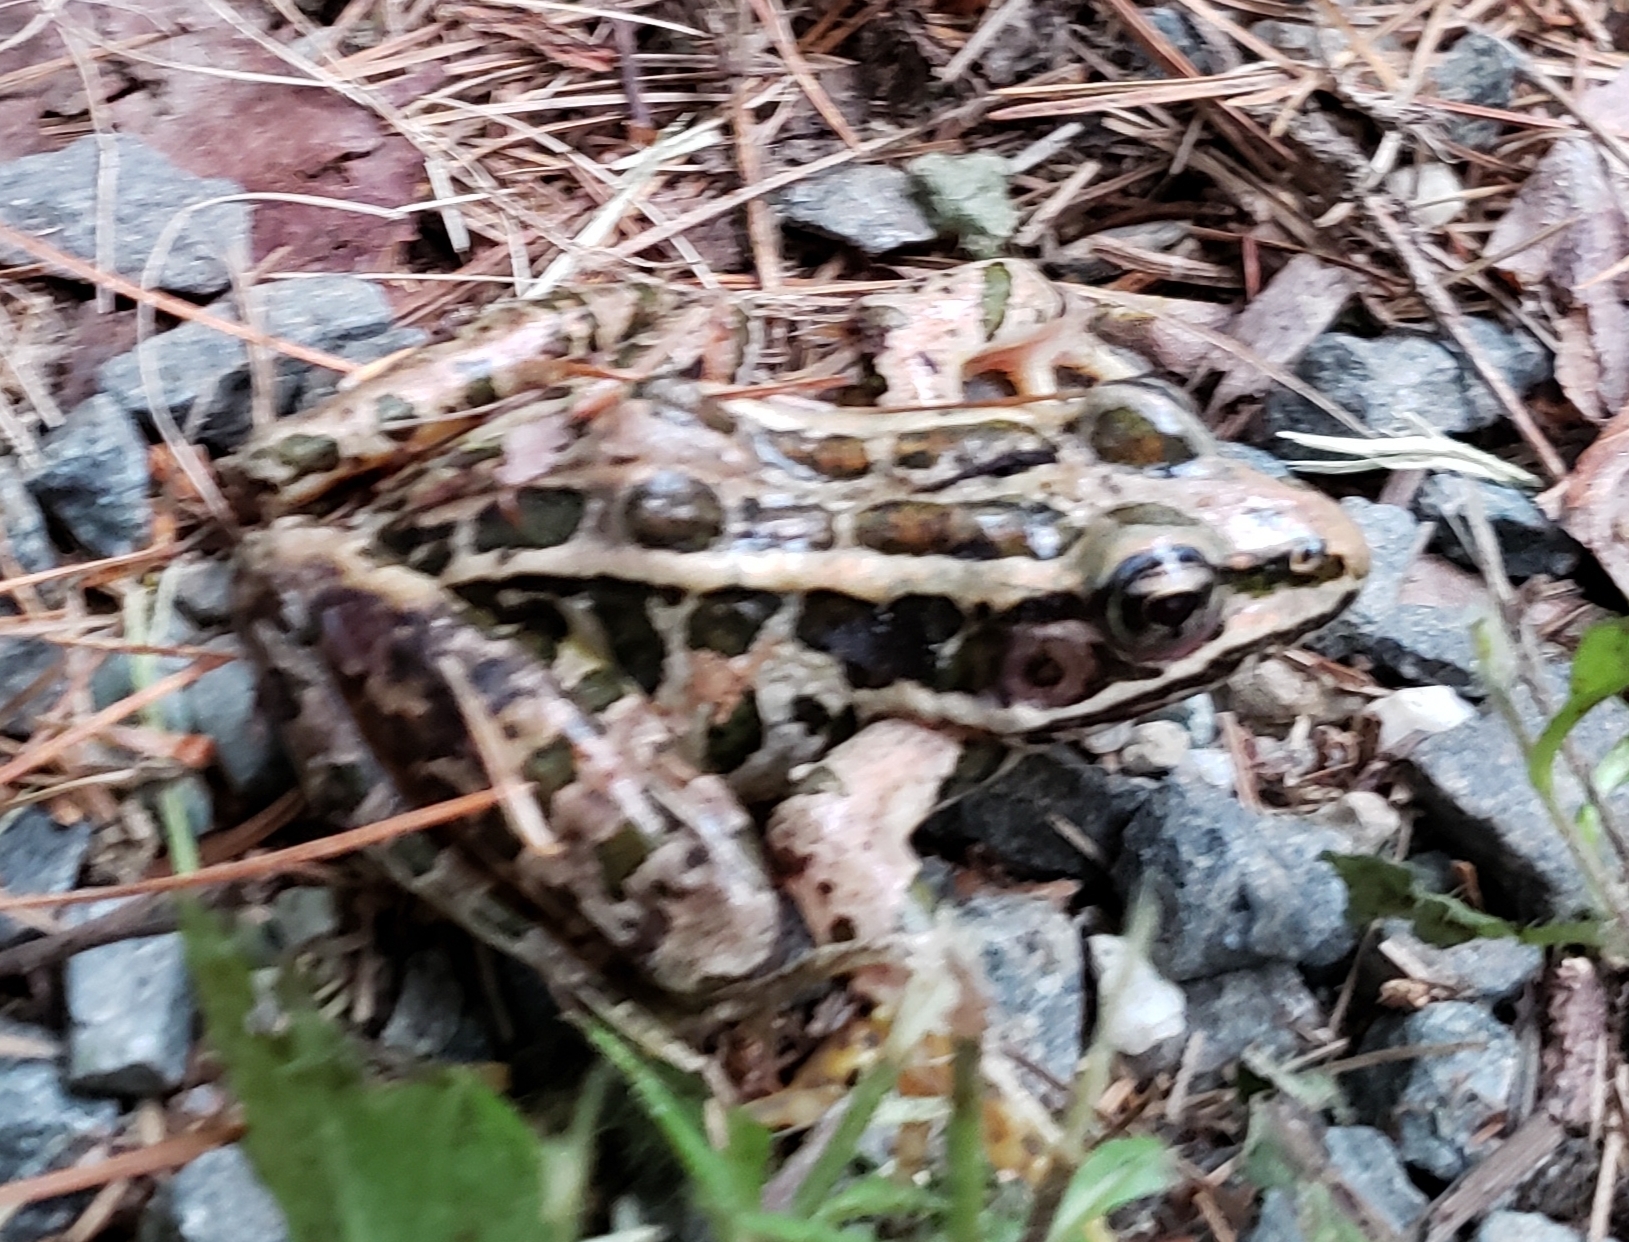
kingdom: Animalia
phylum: Chordata
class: Amphibia
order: Anura
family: Ranidae
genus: Lithobates
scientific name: Lithobates palustris
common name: Pickerel frog
